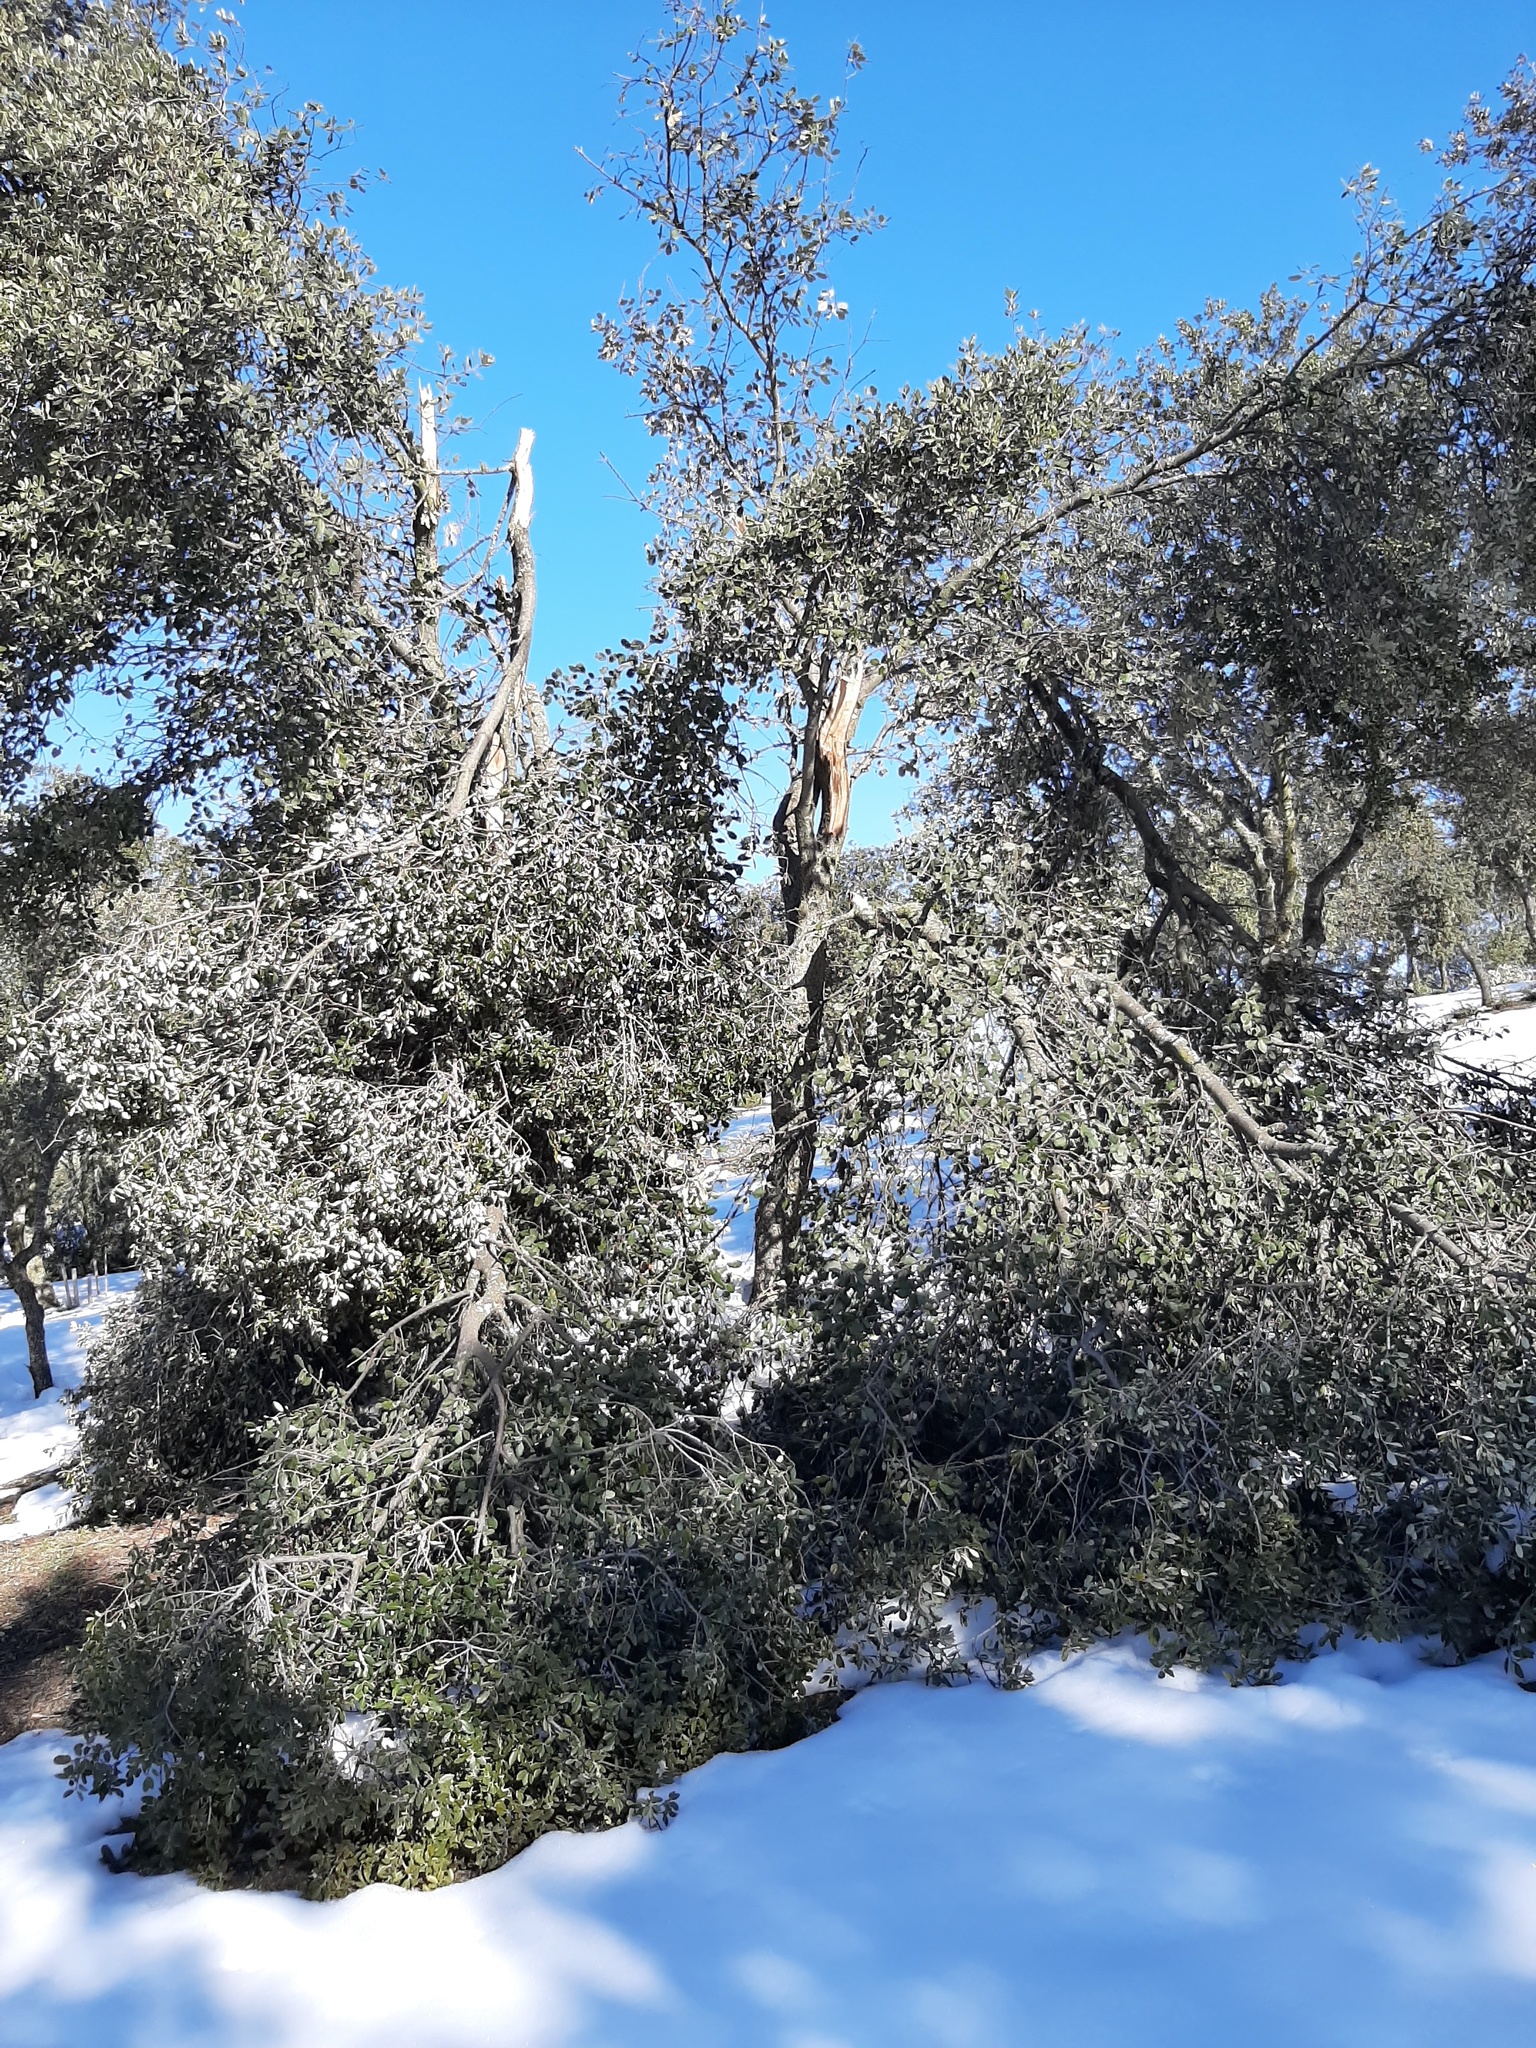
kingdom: Plantae
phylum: Tracheophyta
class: Magnoliopsida
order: Fagales
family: Fagaceae
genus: Quercus
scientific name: Quercus rotundifolia
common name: Holm oak
